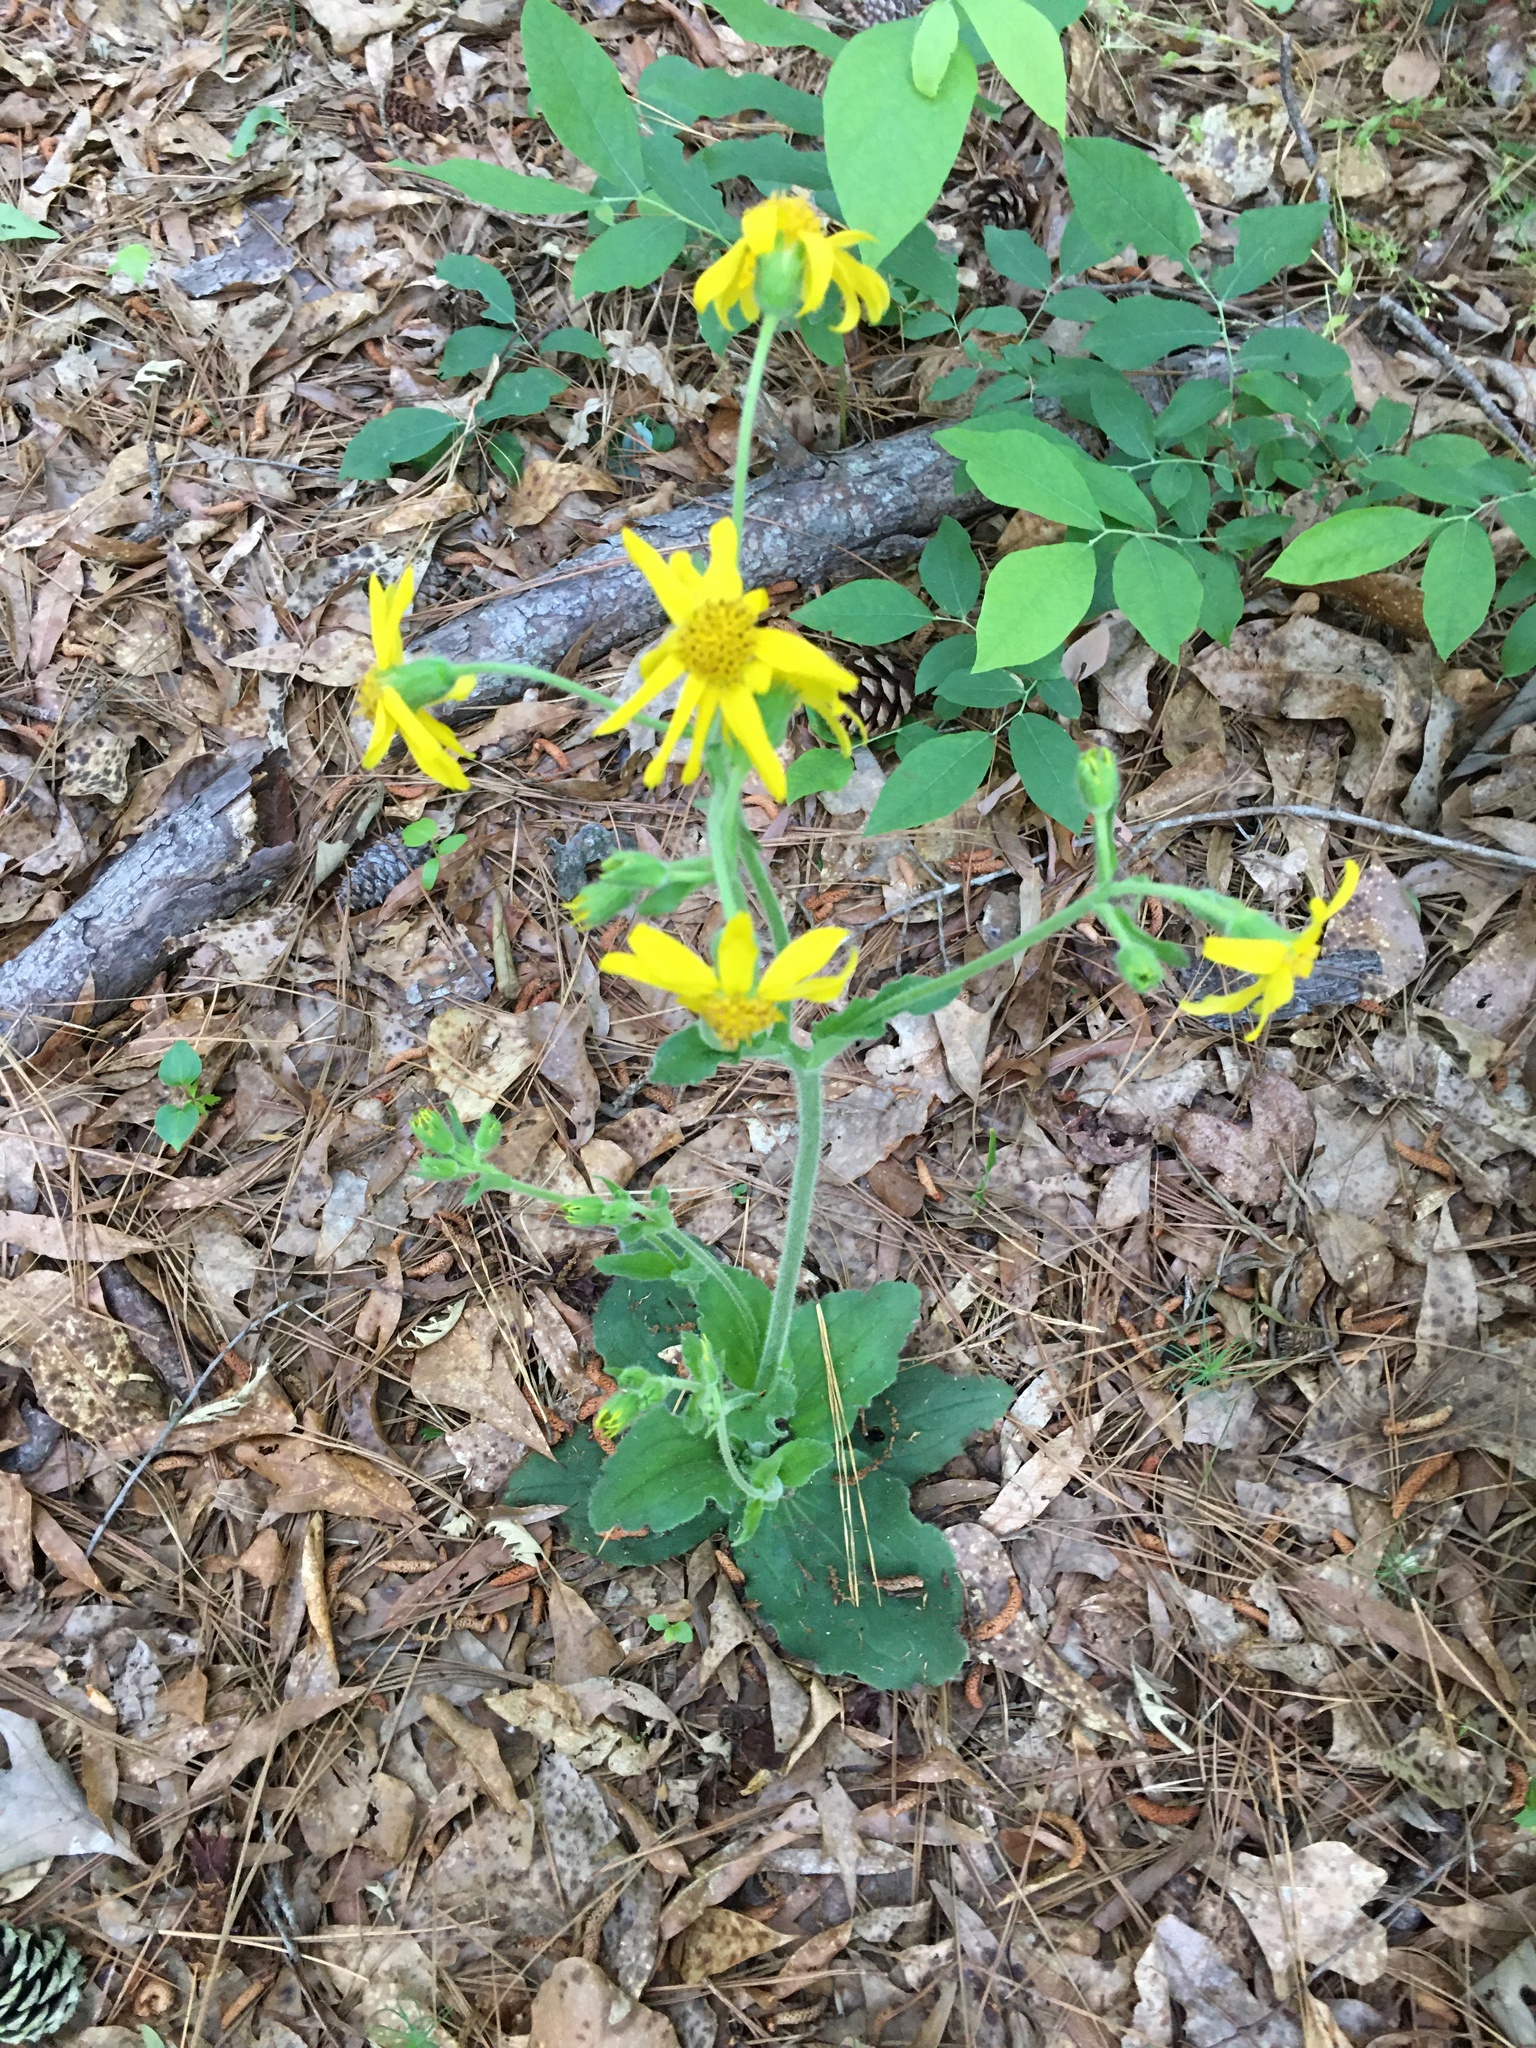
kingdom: Plantae
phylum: Tracheophyta
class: Magnoliopsida
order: Asterales
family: Asteraceae
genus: Arnica
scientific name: Arnica acaulis
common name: Common leopardbane
